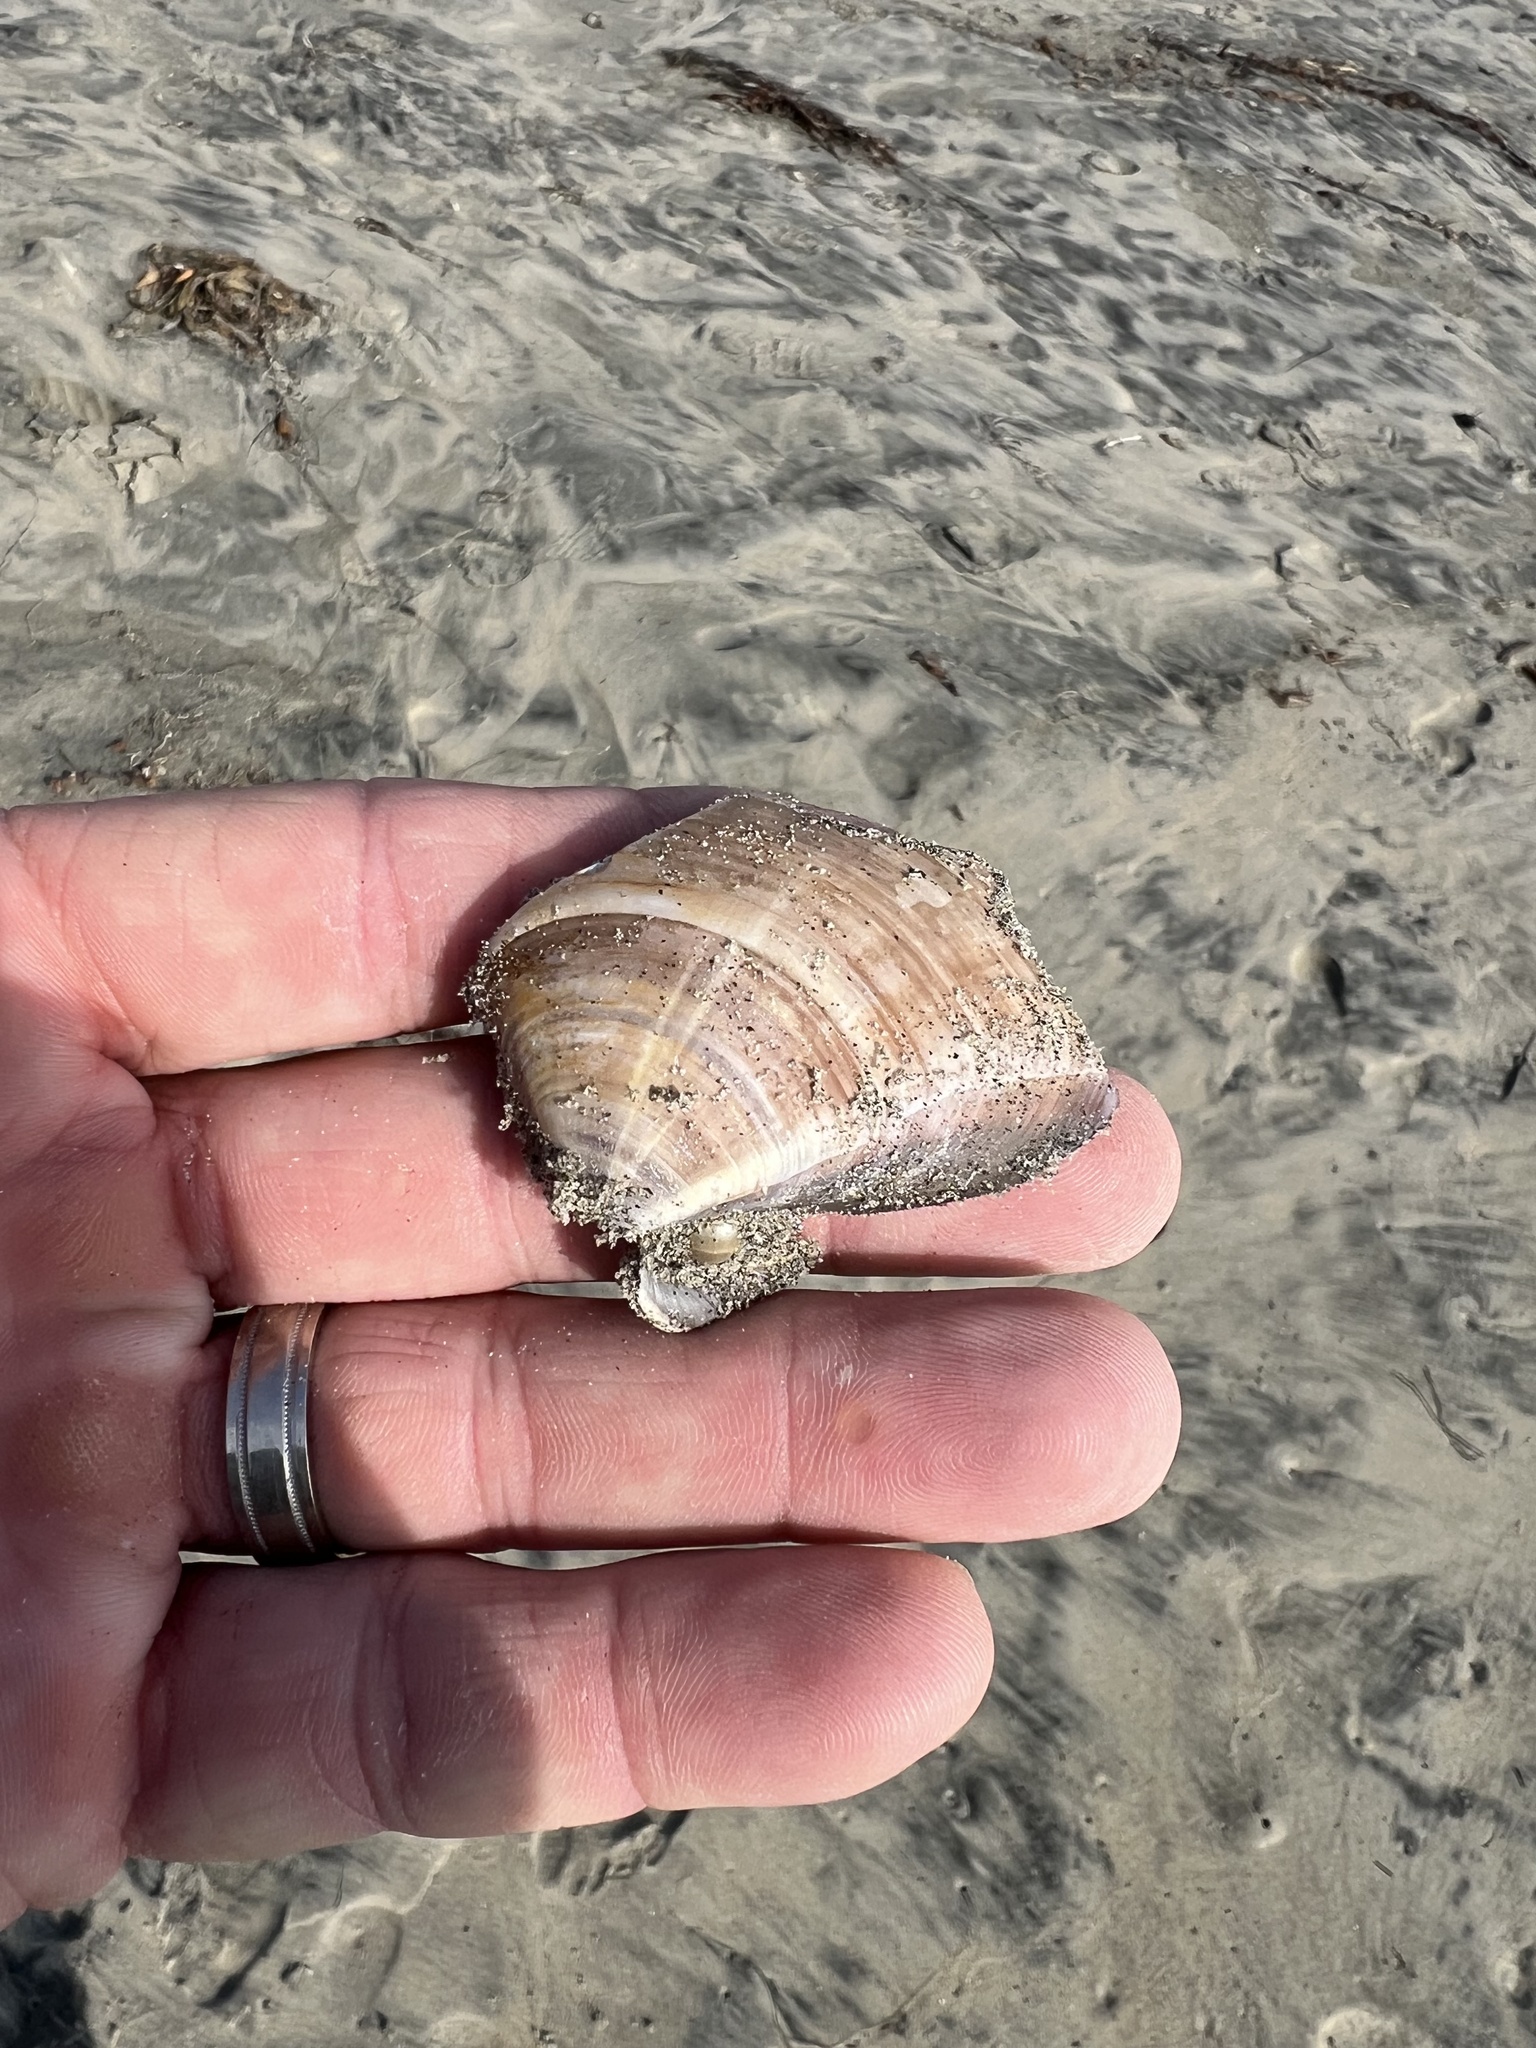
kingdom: Animalia
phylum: Mollusca
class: Bivalvia
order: Venerida
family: Veneridae
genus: Tivela
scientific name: Tivela stultorum
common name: Pismo clam
